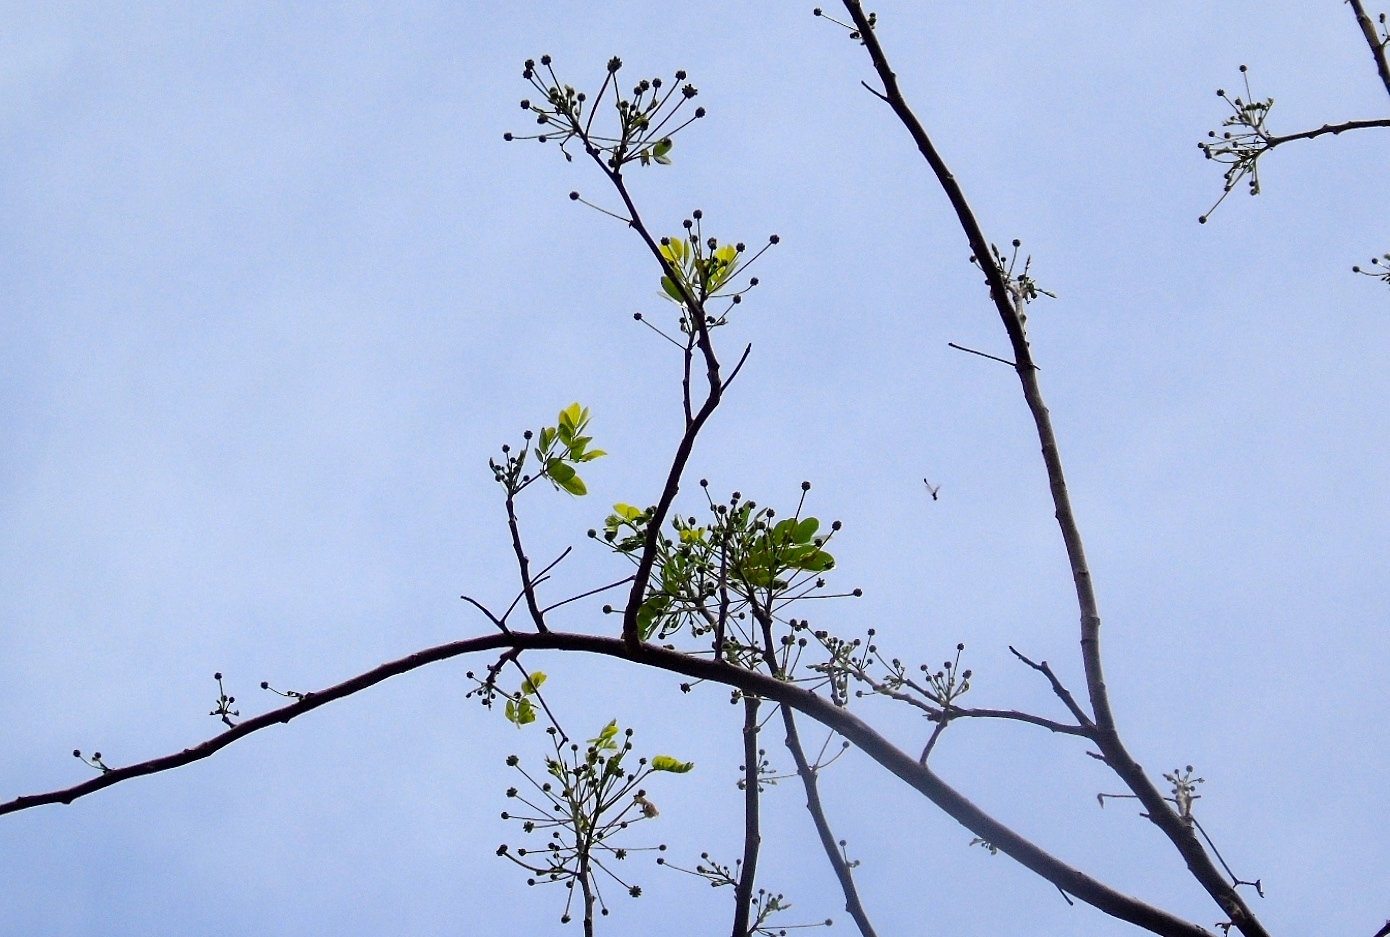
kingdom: Plantae
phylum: Tracheophyta
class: Magnoliopsida
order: Fabales
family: Fabaceae
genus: Albizia
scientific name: Albizia occidentalis
